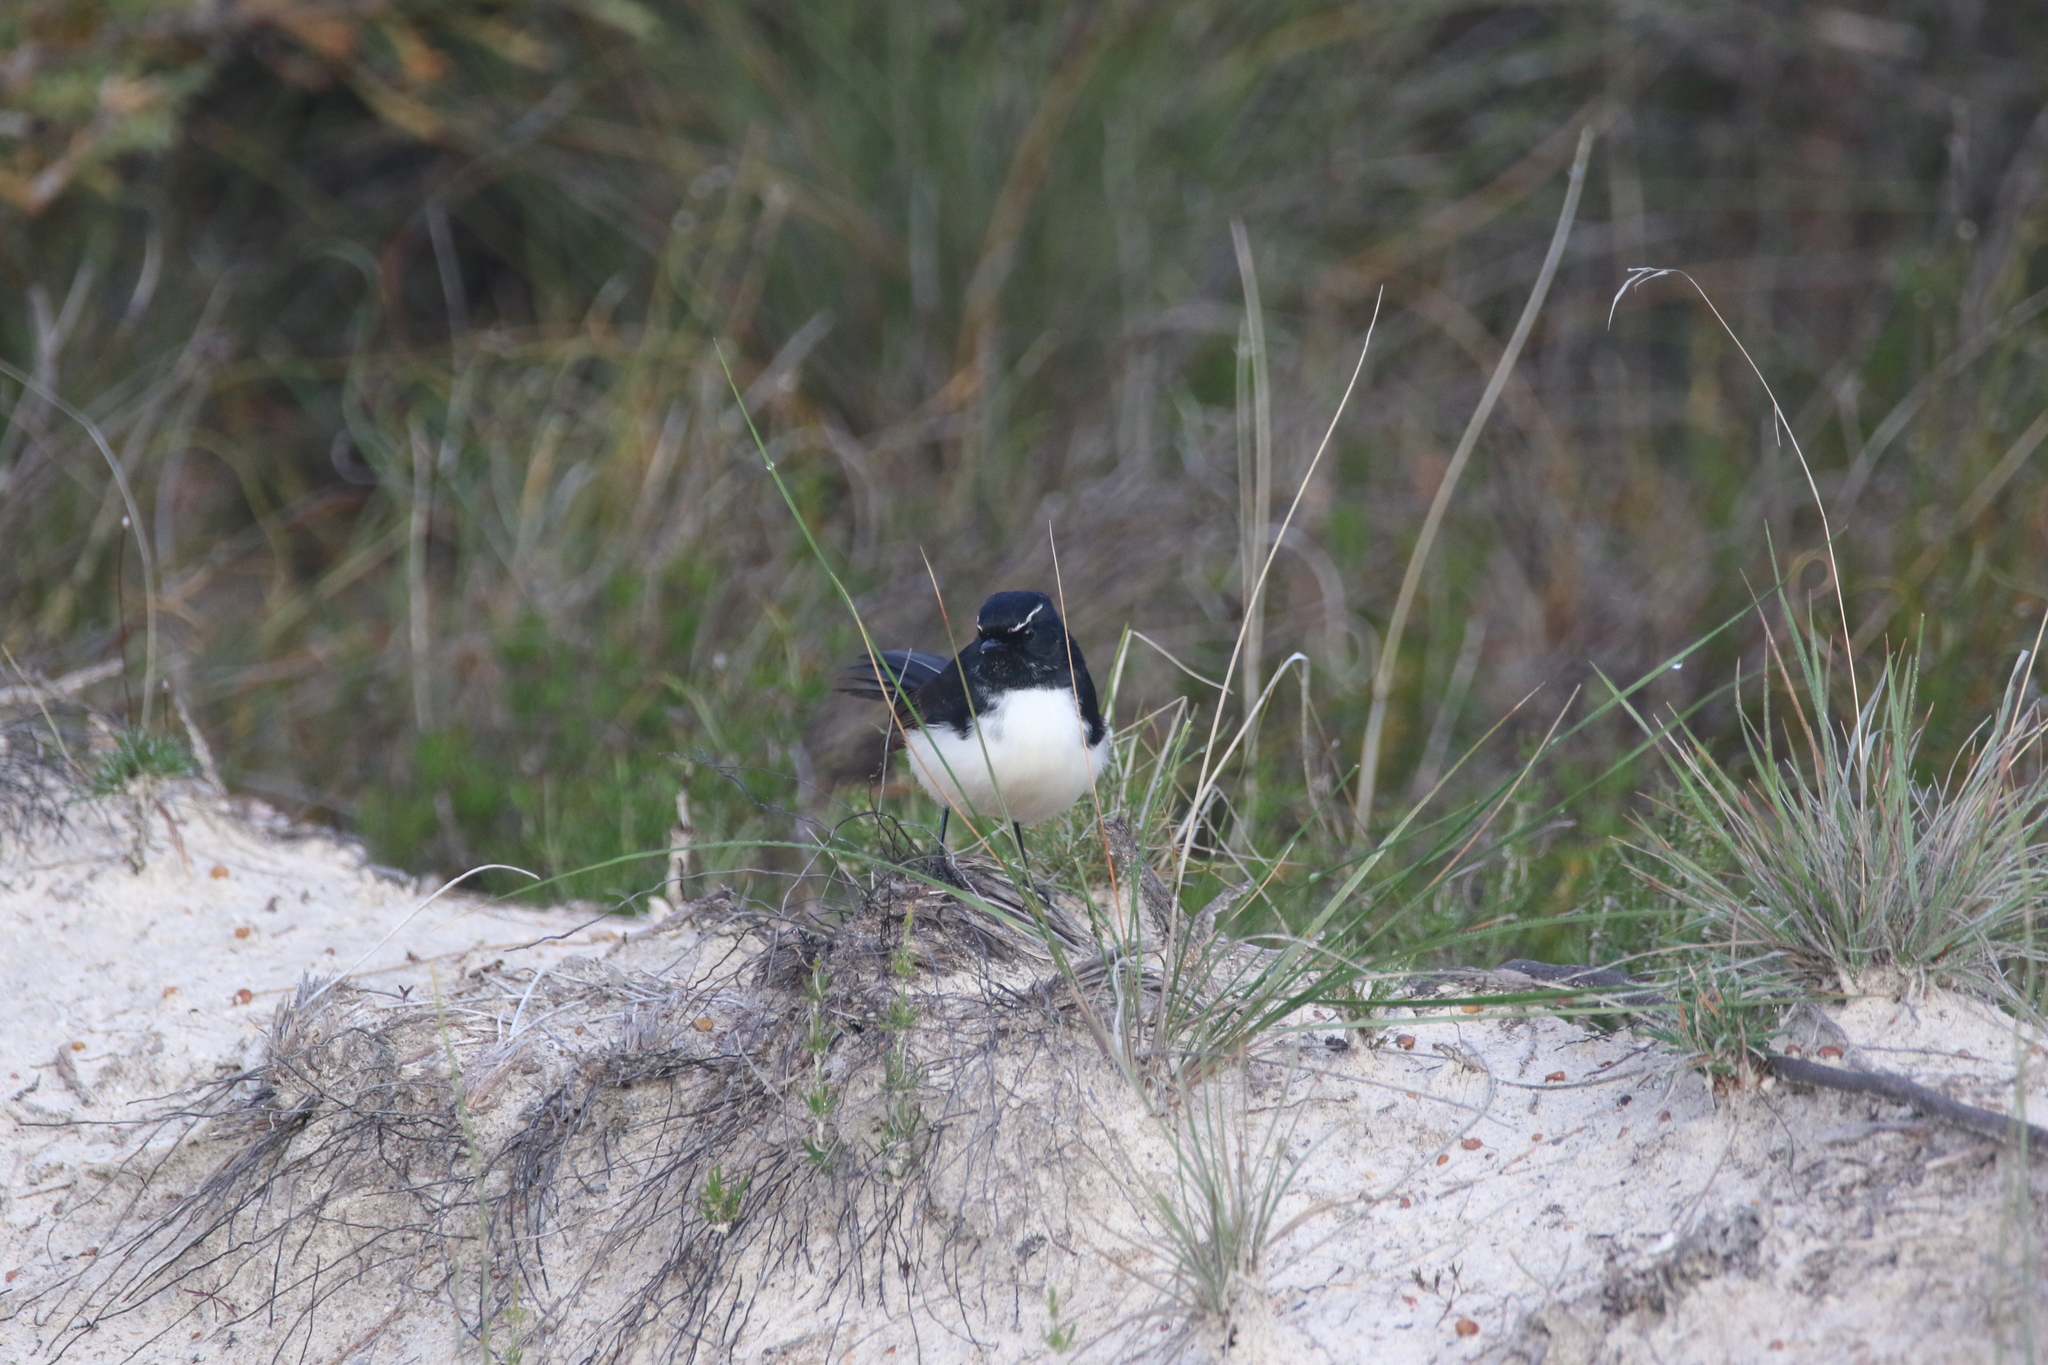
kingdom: Animalia
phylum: Chordata
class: Aves
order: Passeriformes
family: Rhipiduridae
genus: Rhipidura
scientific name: Rhipidura leucophrys
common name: Willie wagtail
